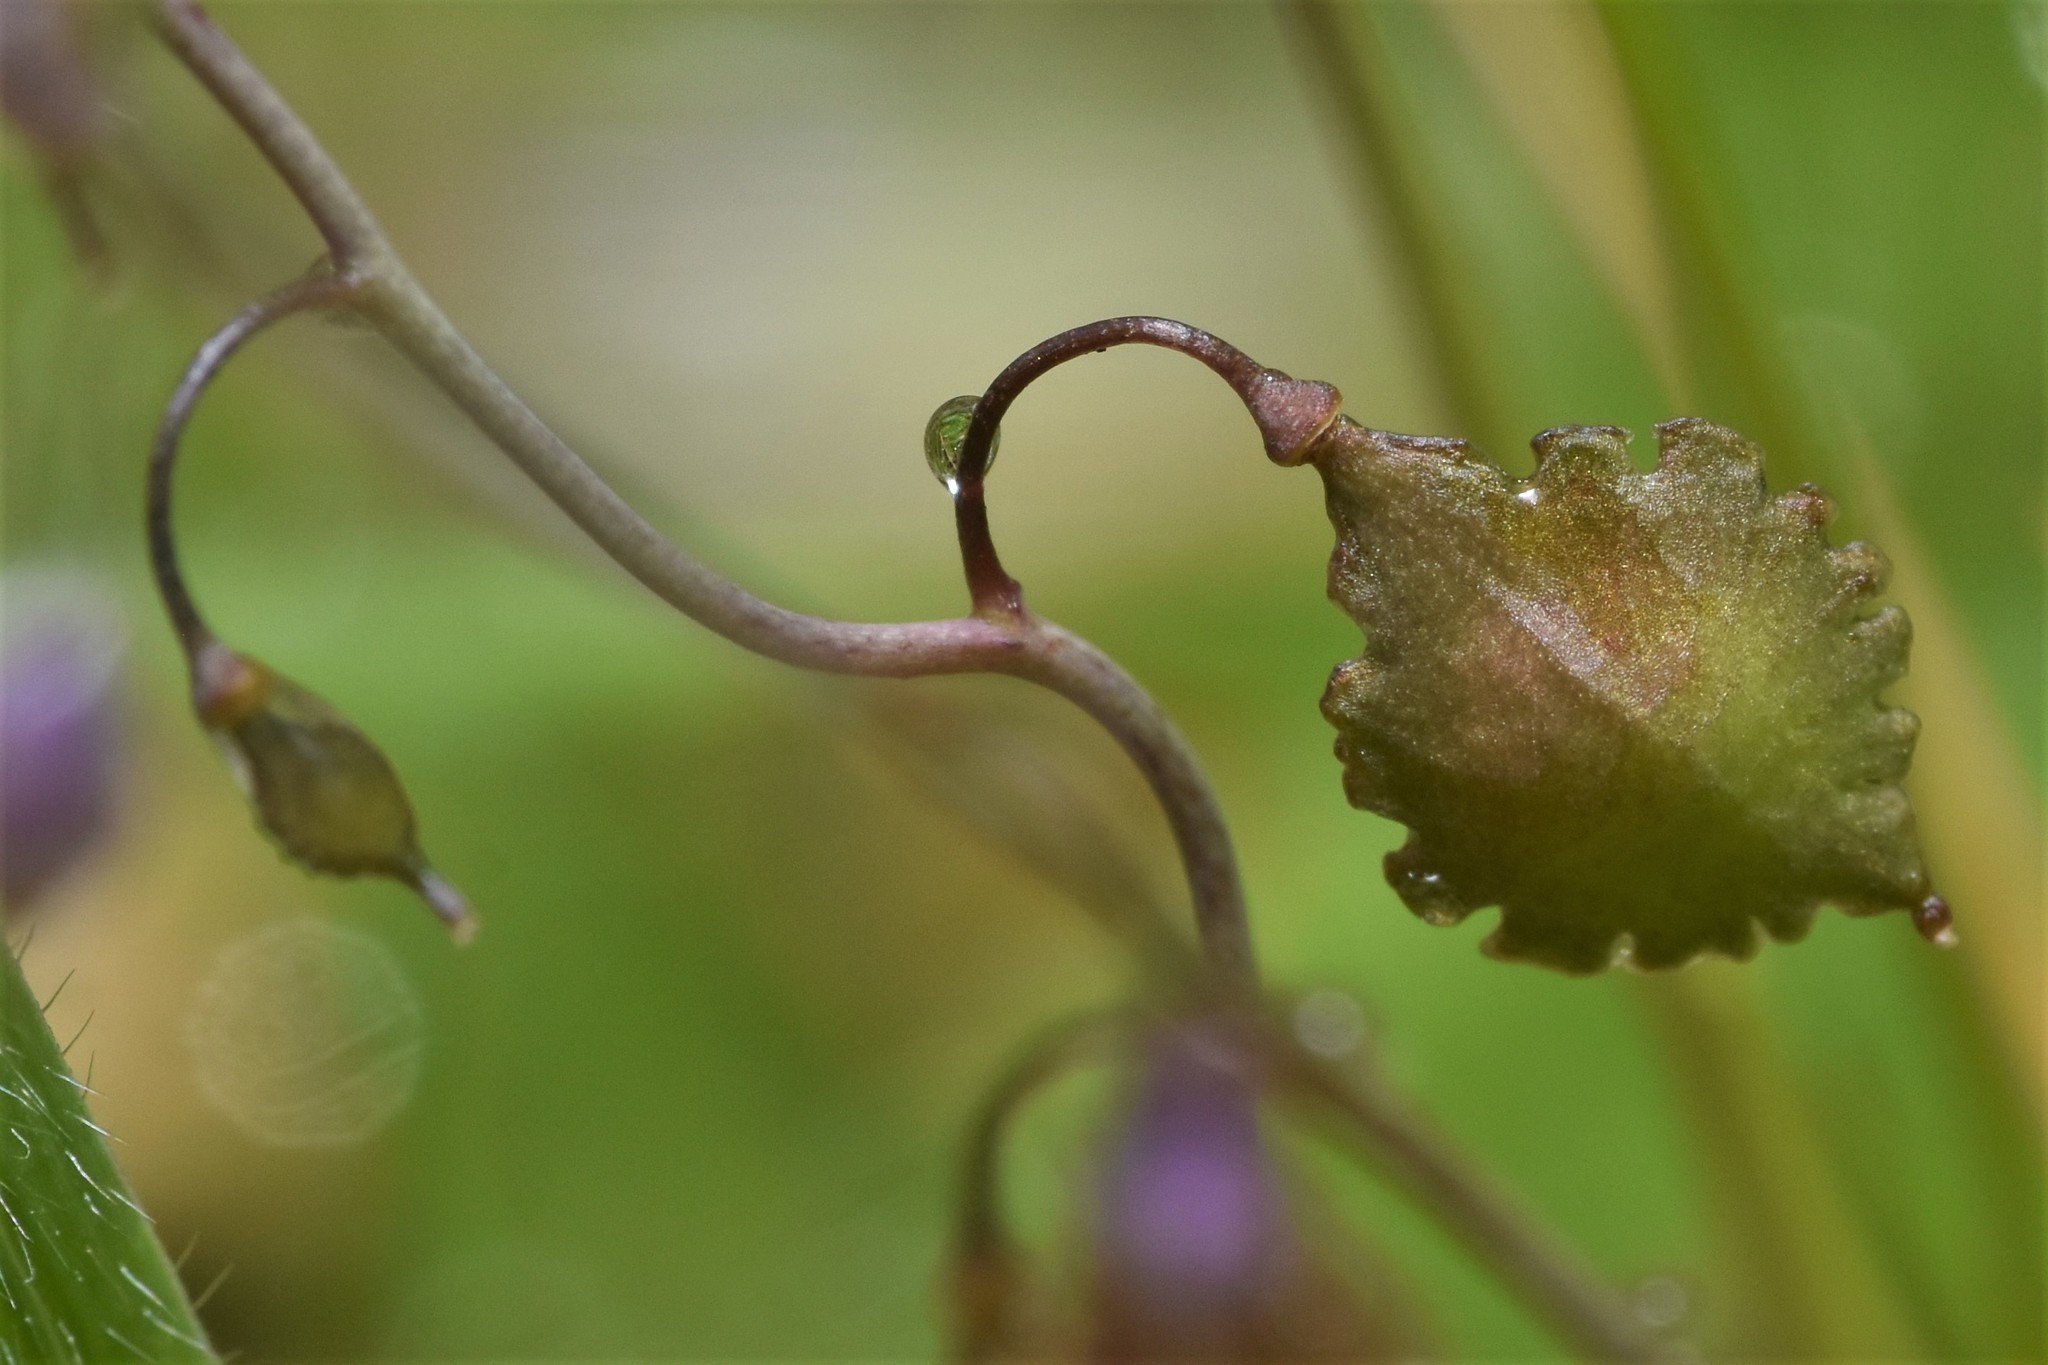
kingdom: Plantae
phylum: Tracheophyta
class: Magnoliopsida
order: Brassicales
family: Brassicaceae
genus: Thysanocarpus
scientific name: Thysanocarpus curvipes
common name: Sand fringepod
